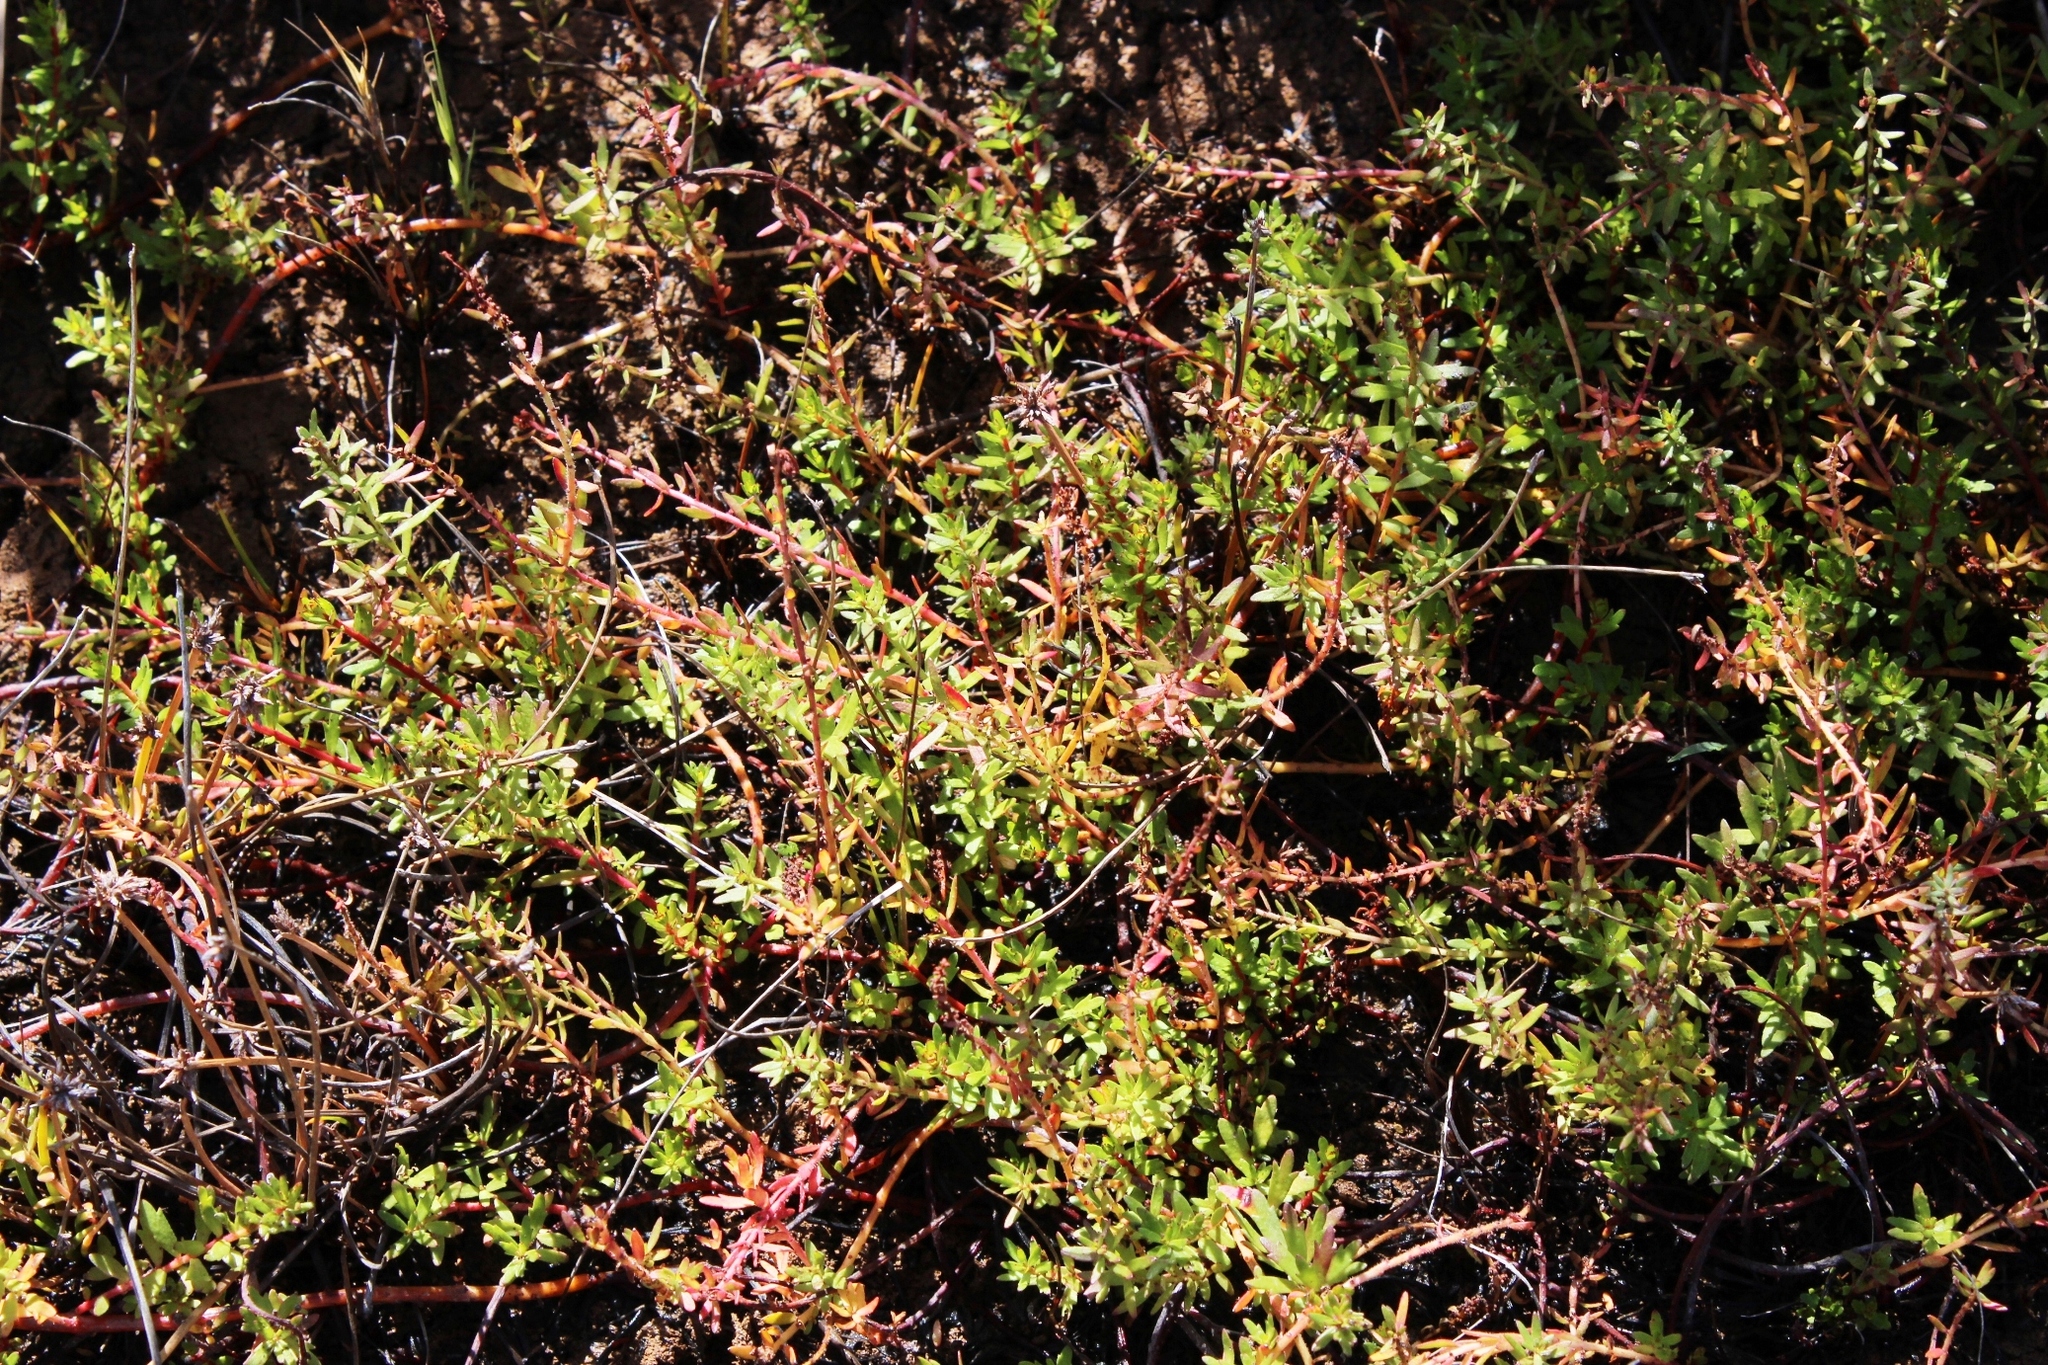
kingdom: Plantae
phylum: Tracheophyta
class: Magnoliopsida
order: Saxifragales
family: Haloragaceae
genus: Laurembergia
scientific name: Laurembergia repens
